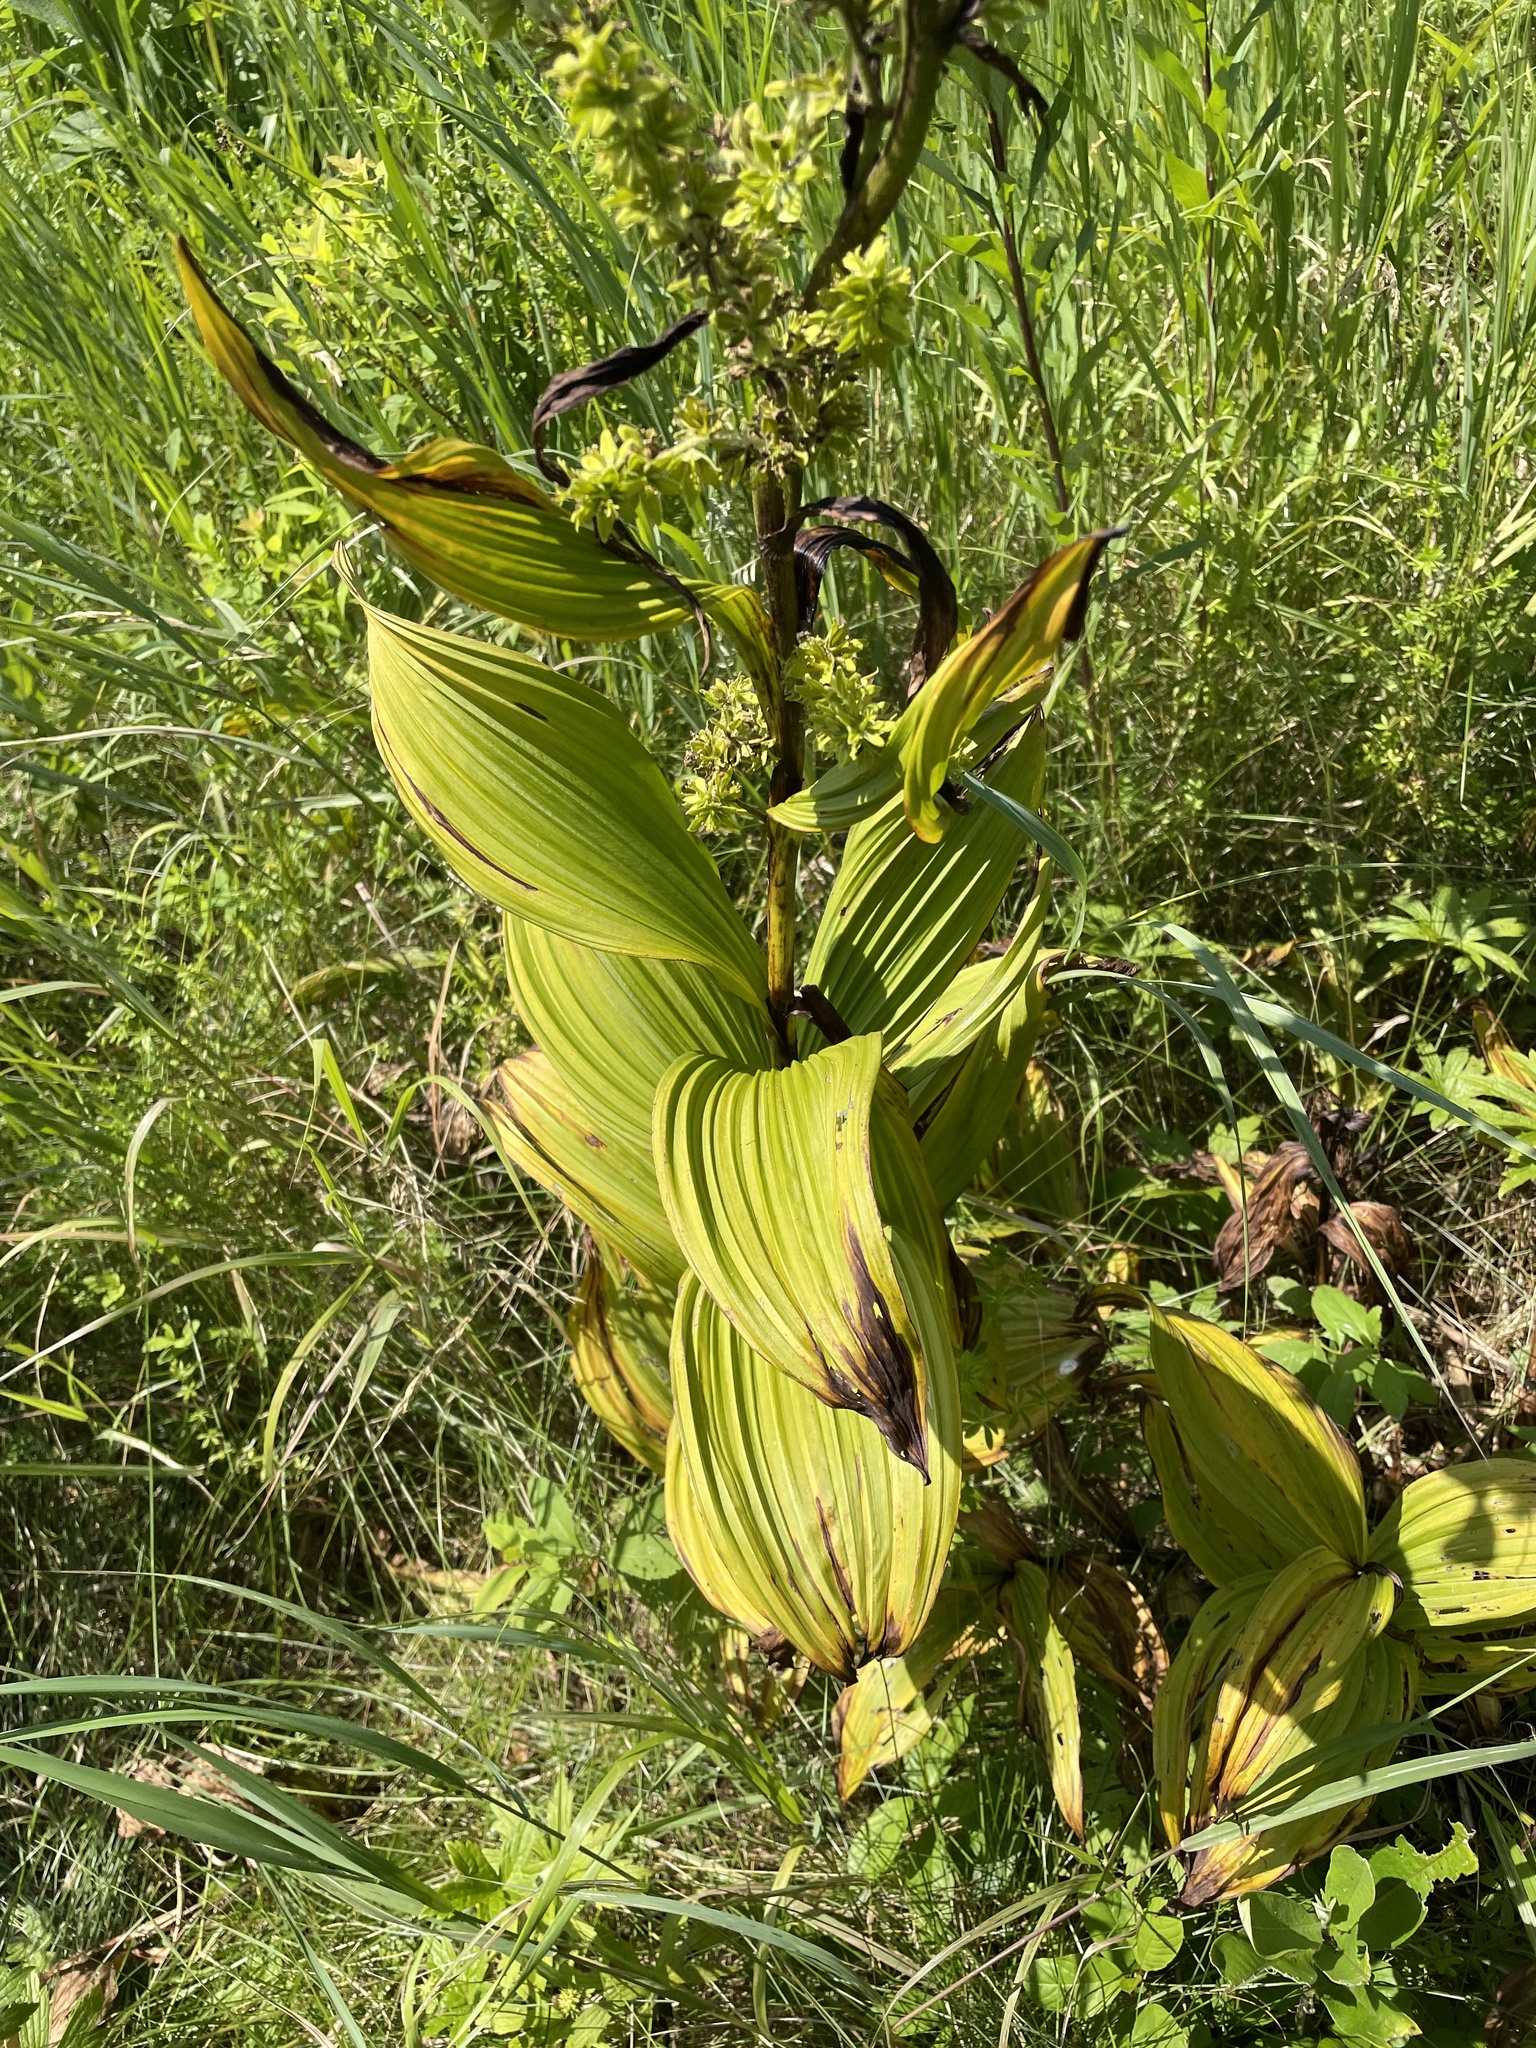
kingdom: Plantae
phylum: Tracheophyta
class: Liliopsida
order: Liliales
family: Melanthiaceae
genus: Veratrum
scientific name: Veratrum viride
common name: American false hellebore
